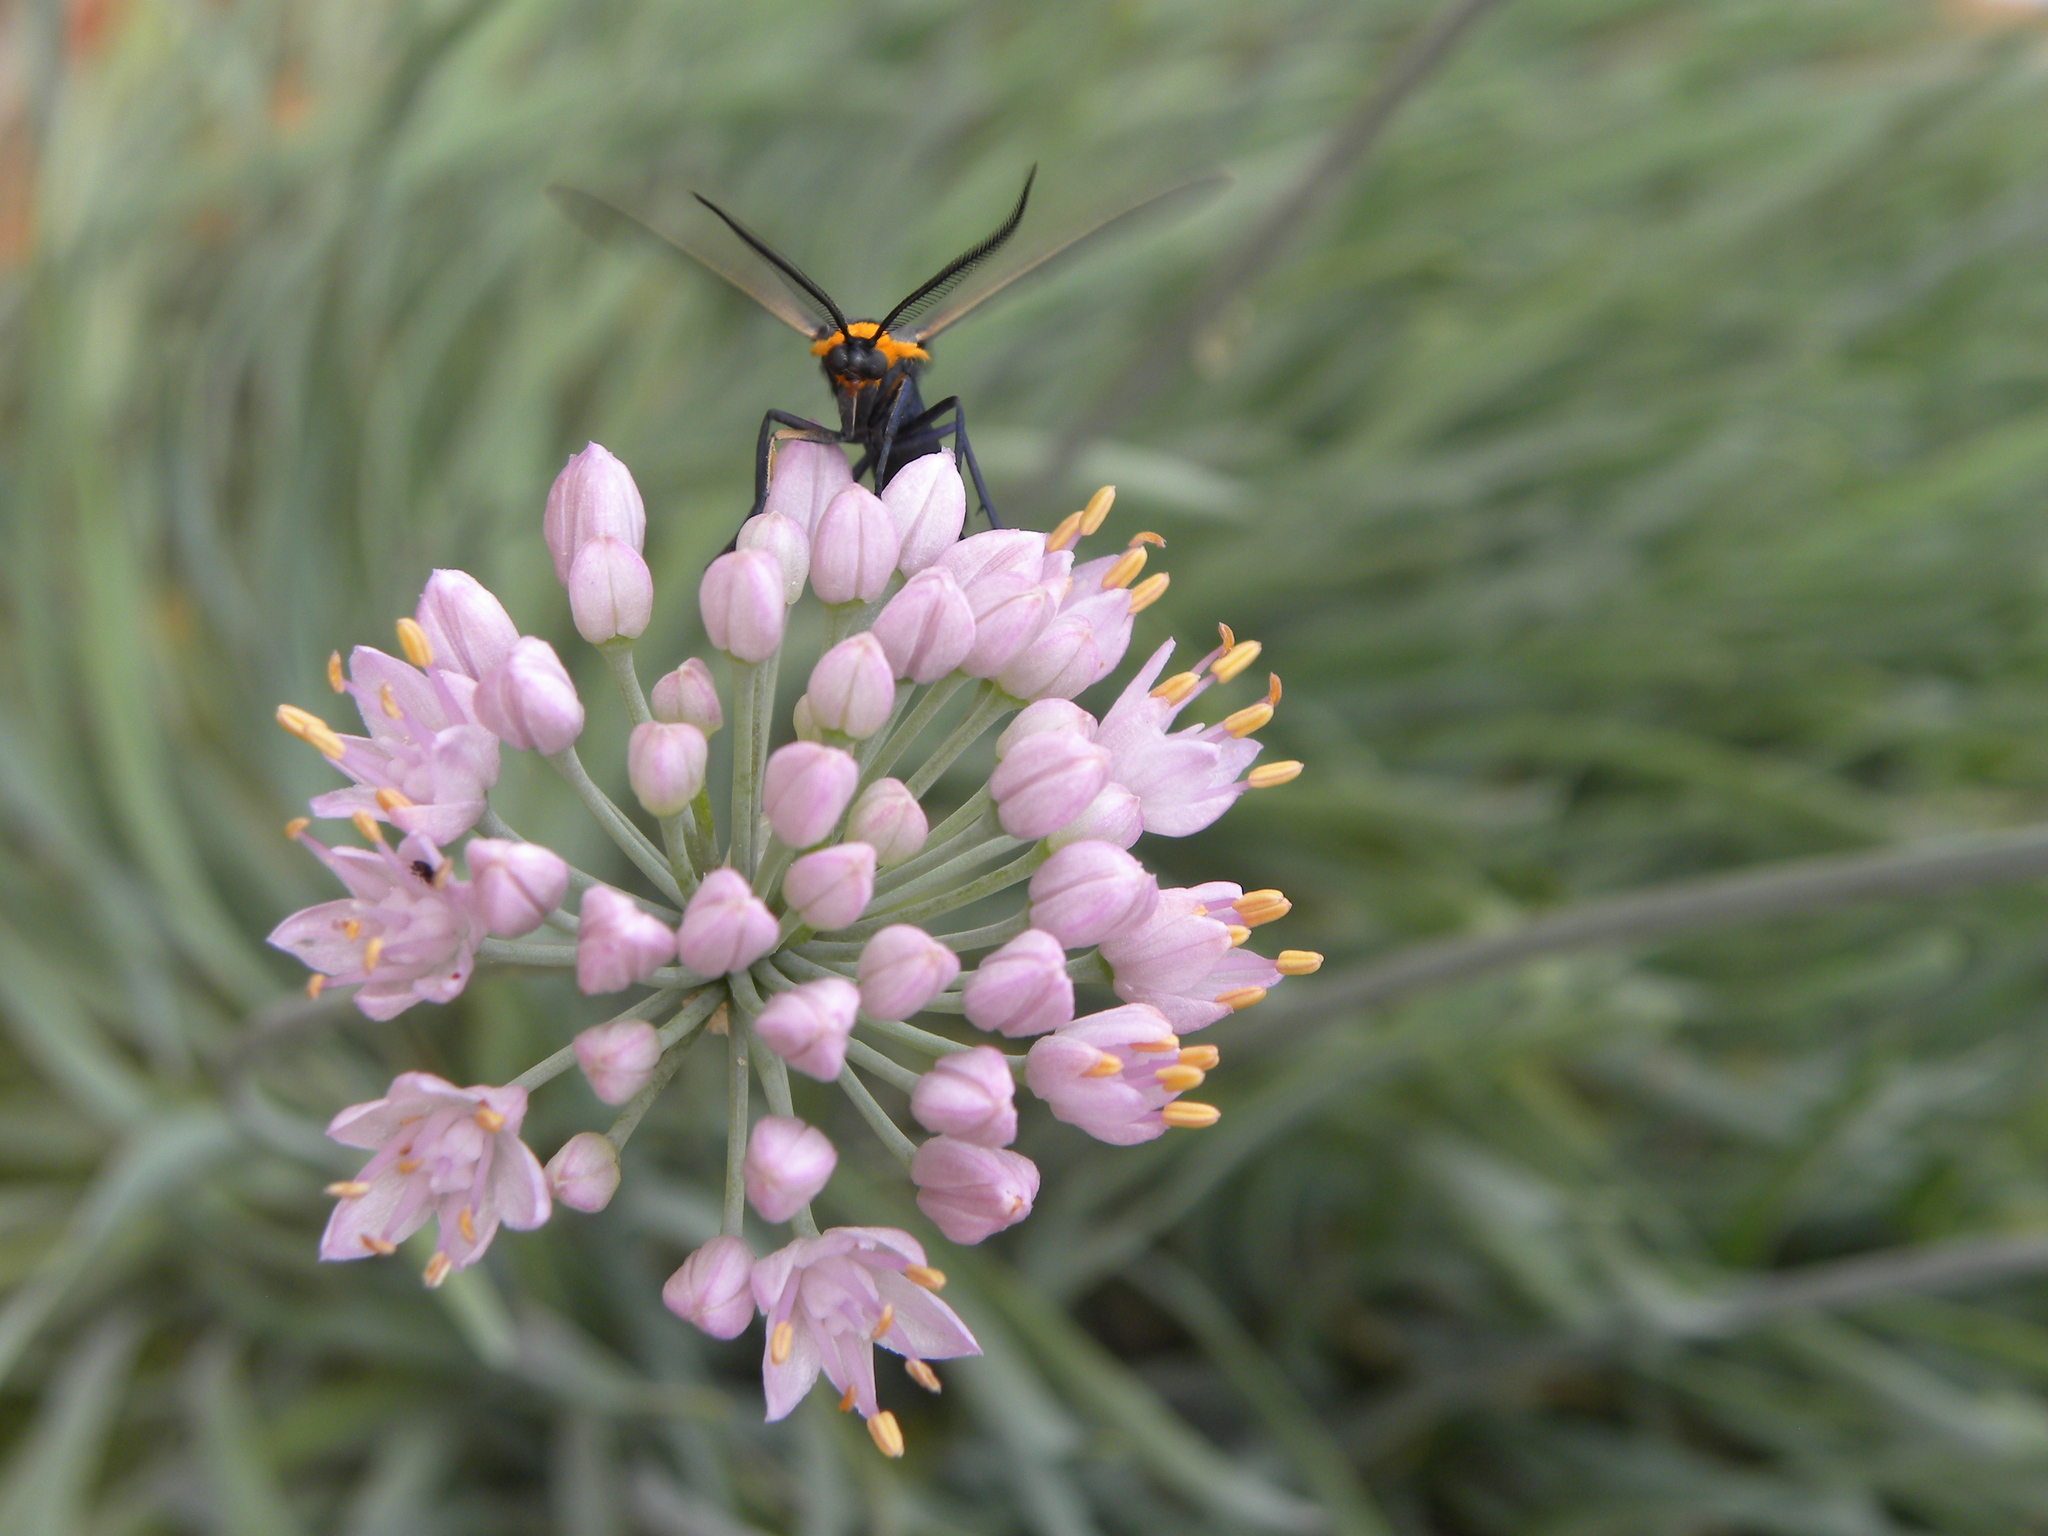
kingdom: Animalia
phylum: Arthropoda
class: Insecta
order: Lepidoptera
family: Erebidae
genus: Cisseps
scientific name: Cisseps fulvicollis
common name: Yellow-collared scape moth
